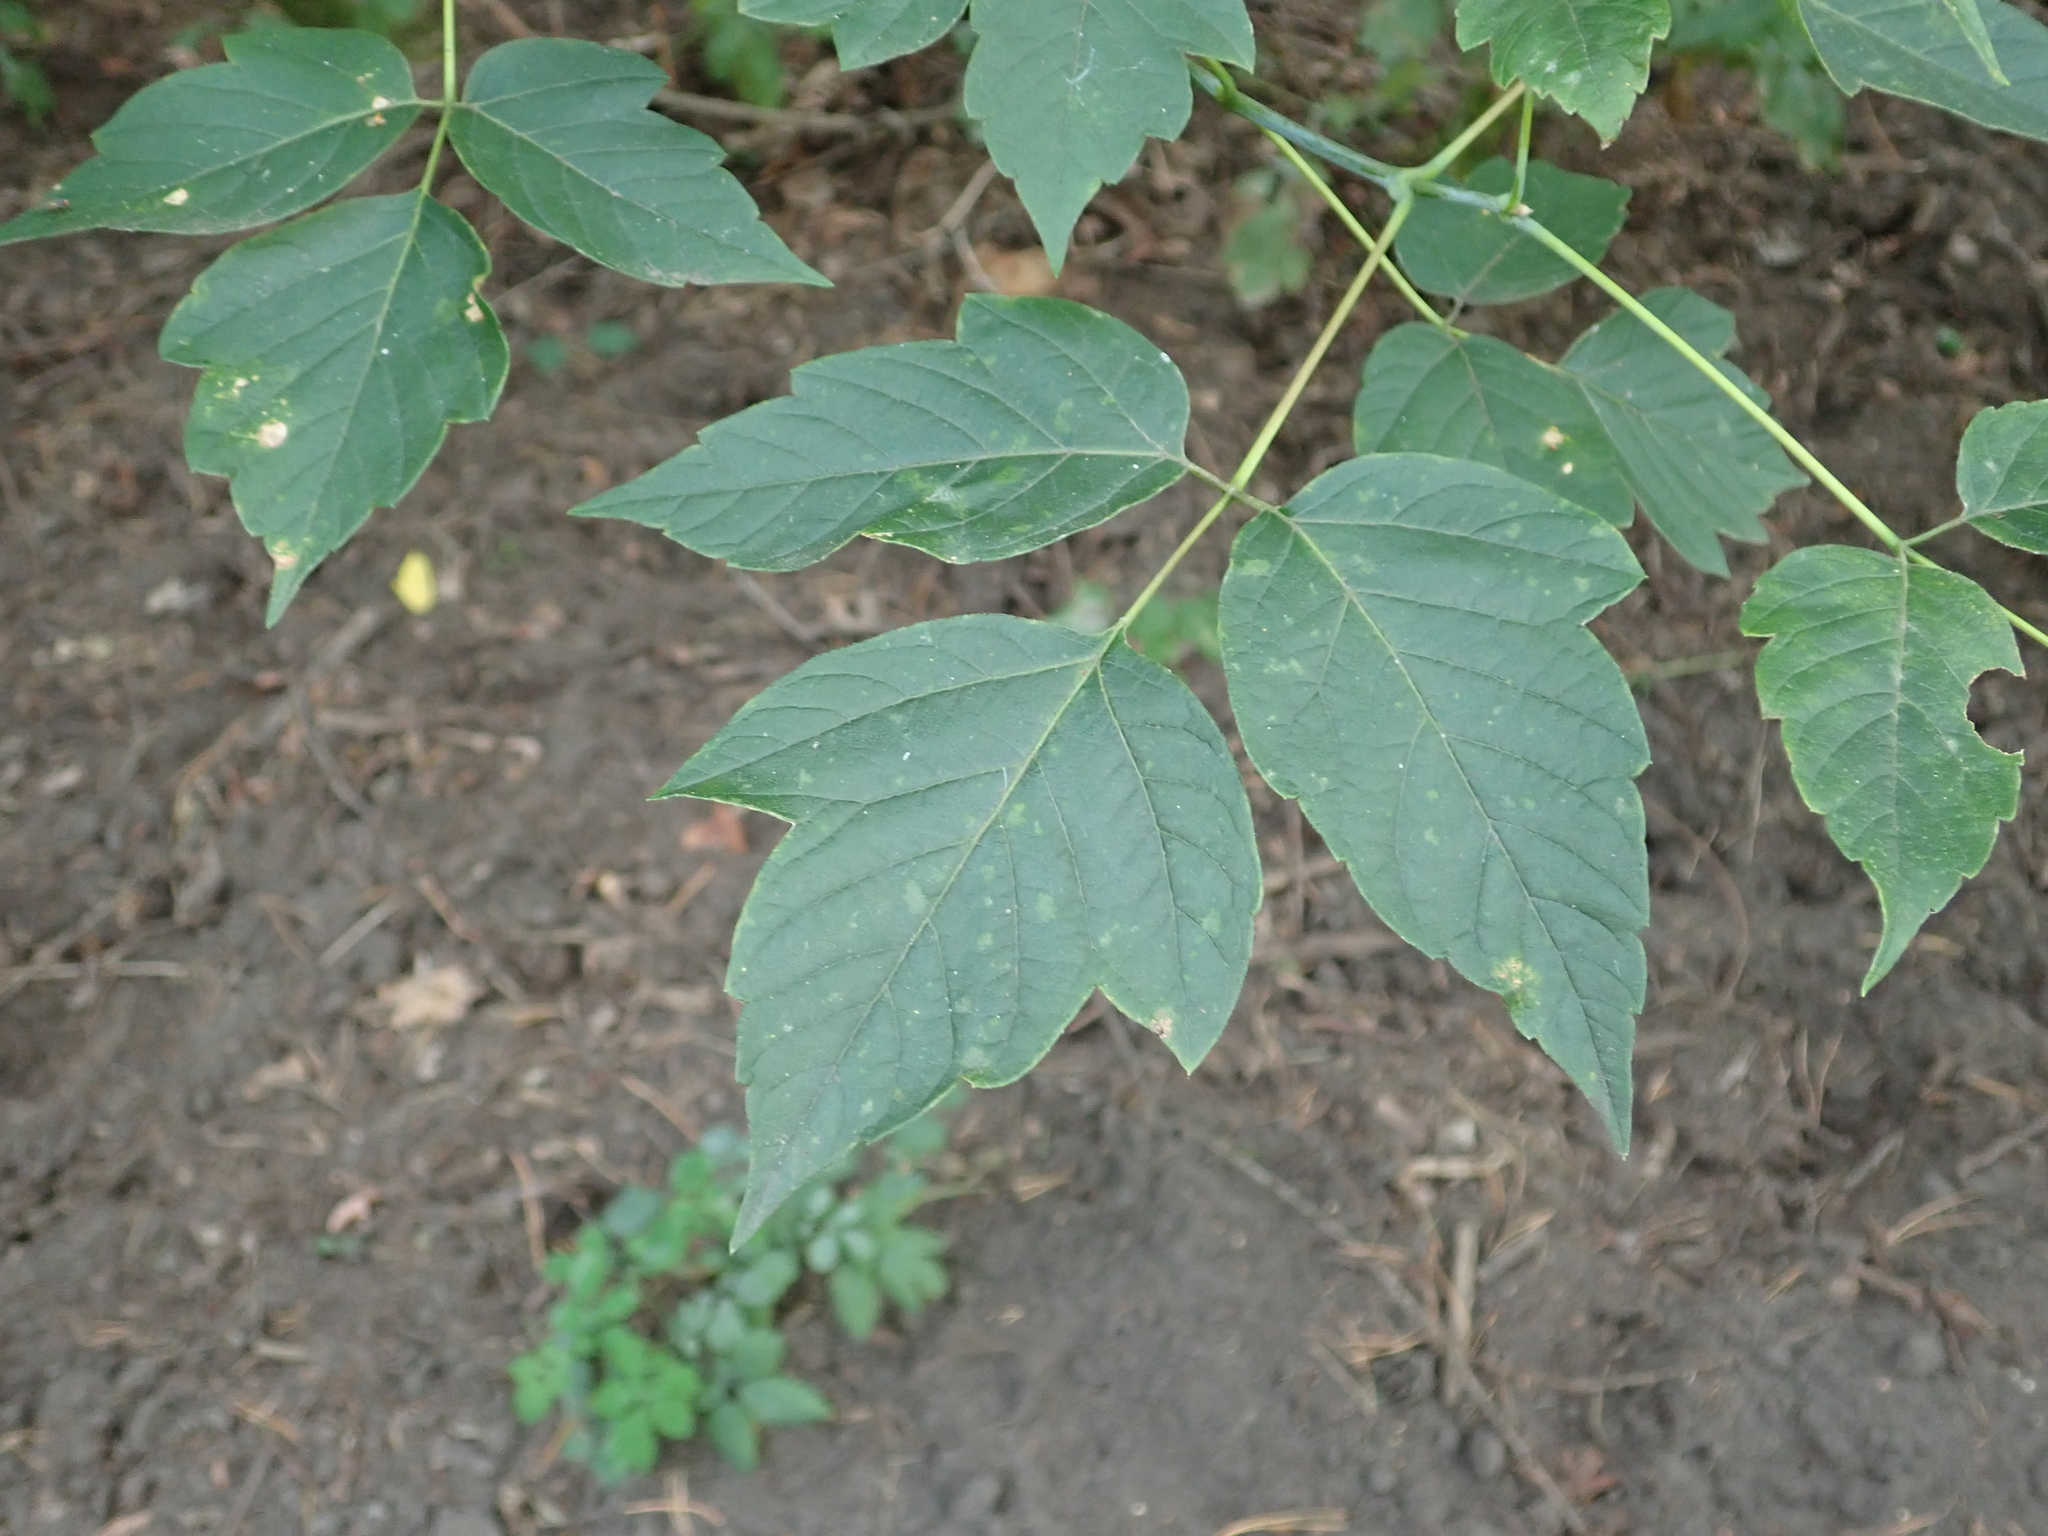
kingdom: Plantae
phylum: Tracheophyta
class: Magnoliopsida
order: Sapindales
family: Sapindaceae
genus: Acer
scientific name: Acer negundo
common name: Ashleaf maple
